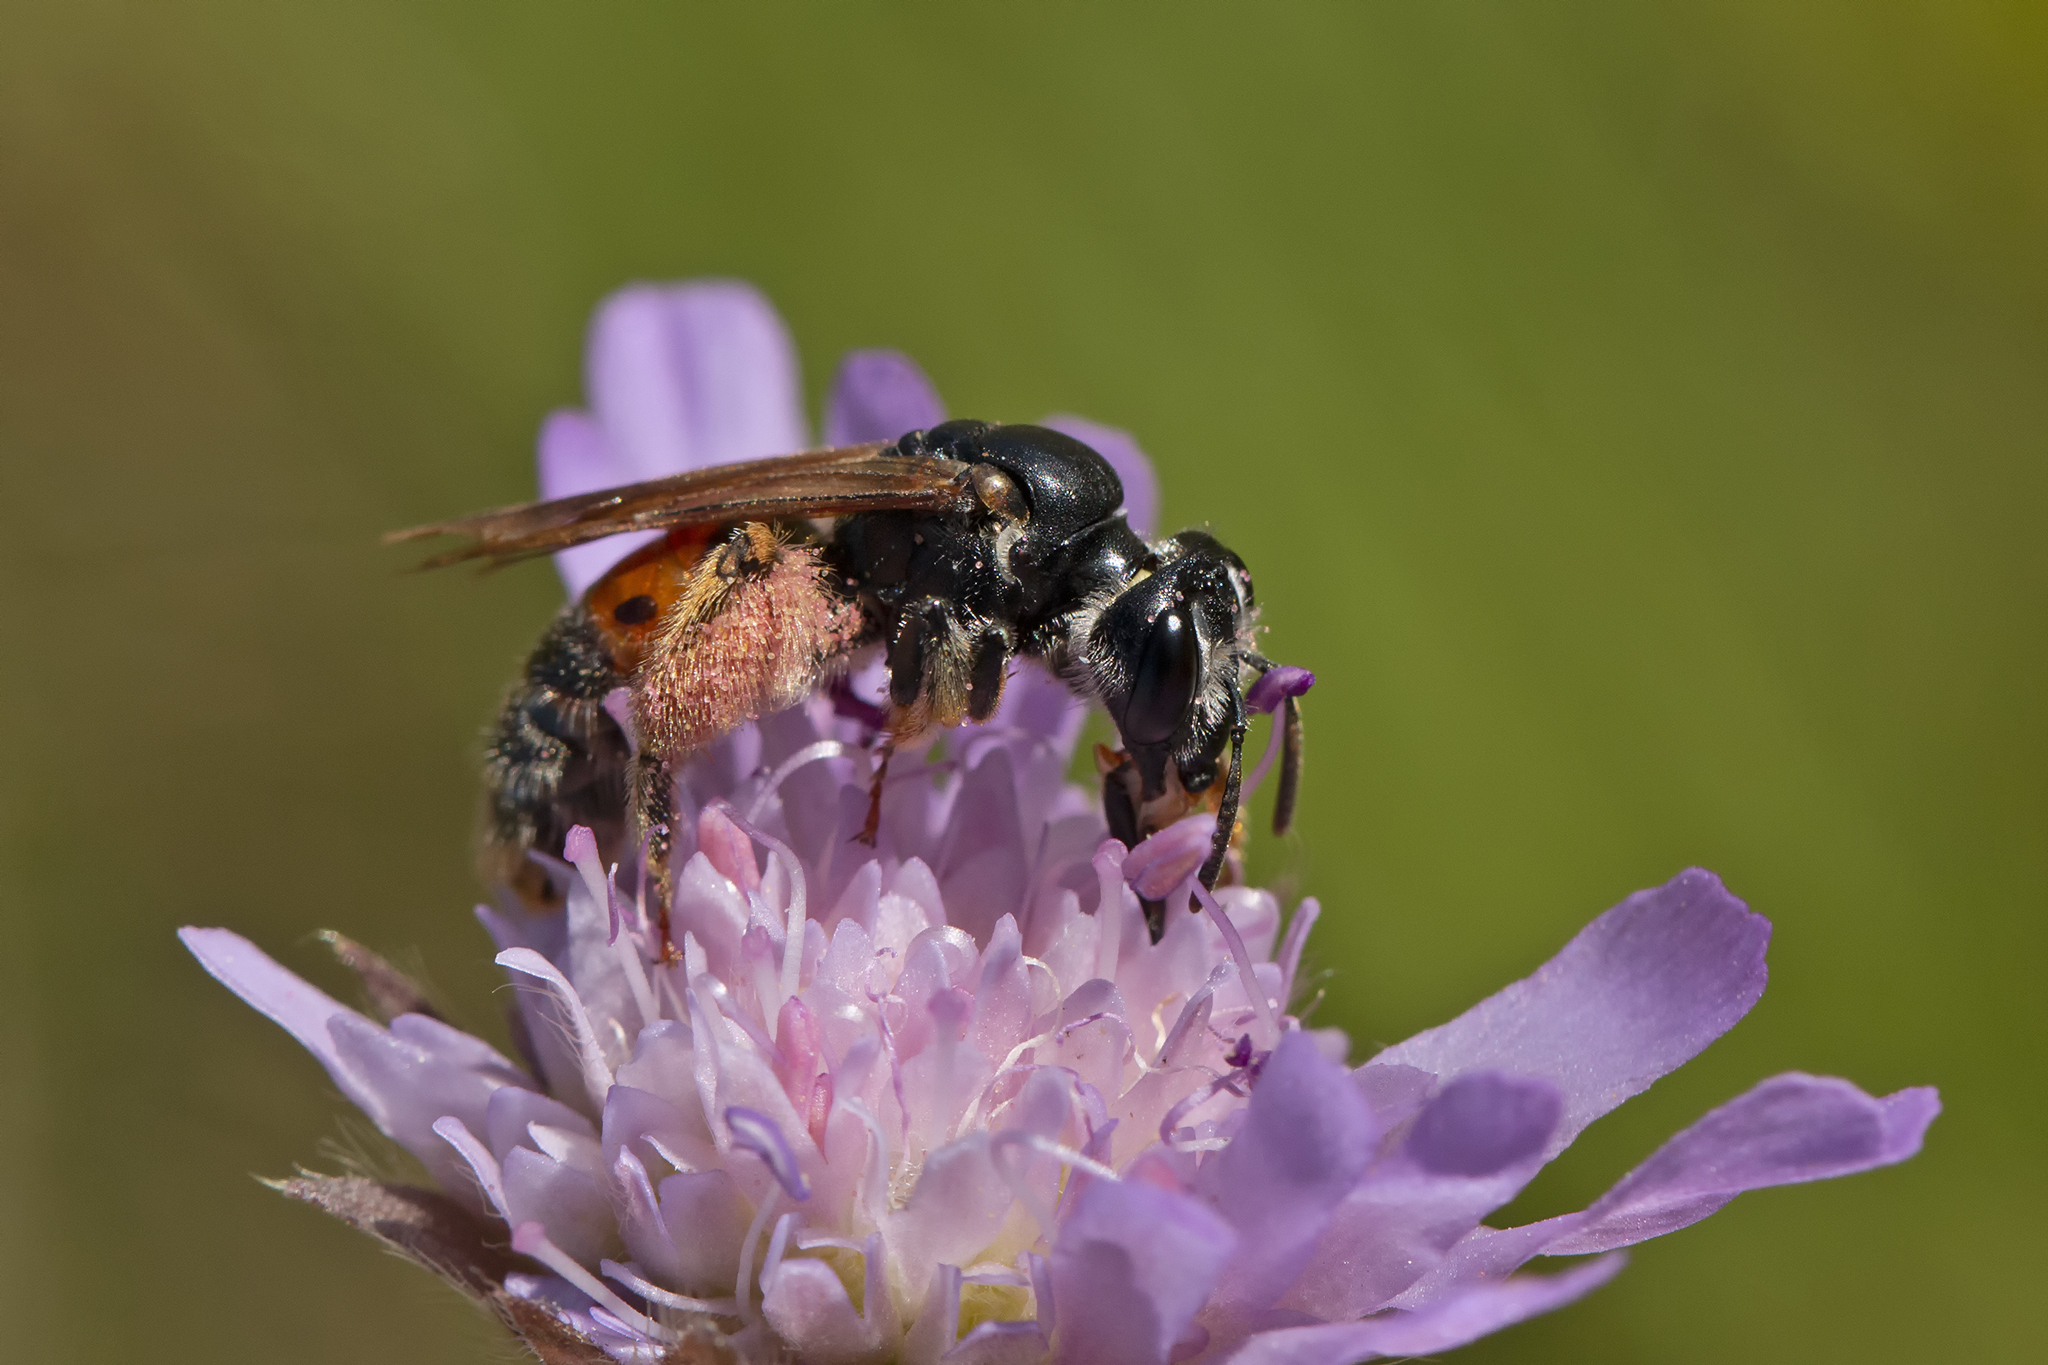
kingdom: Animalia
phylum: Arthropoda
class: Insecta
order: Hymenoptera
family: Andrenidae
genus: Andrena
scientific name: Andrena hattorfiana
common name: Large scabious mining bee
